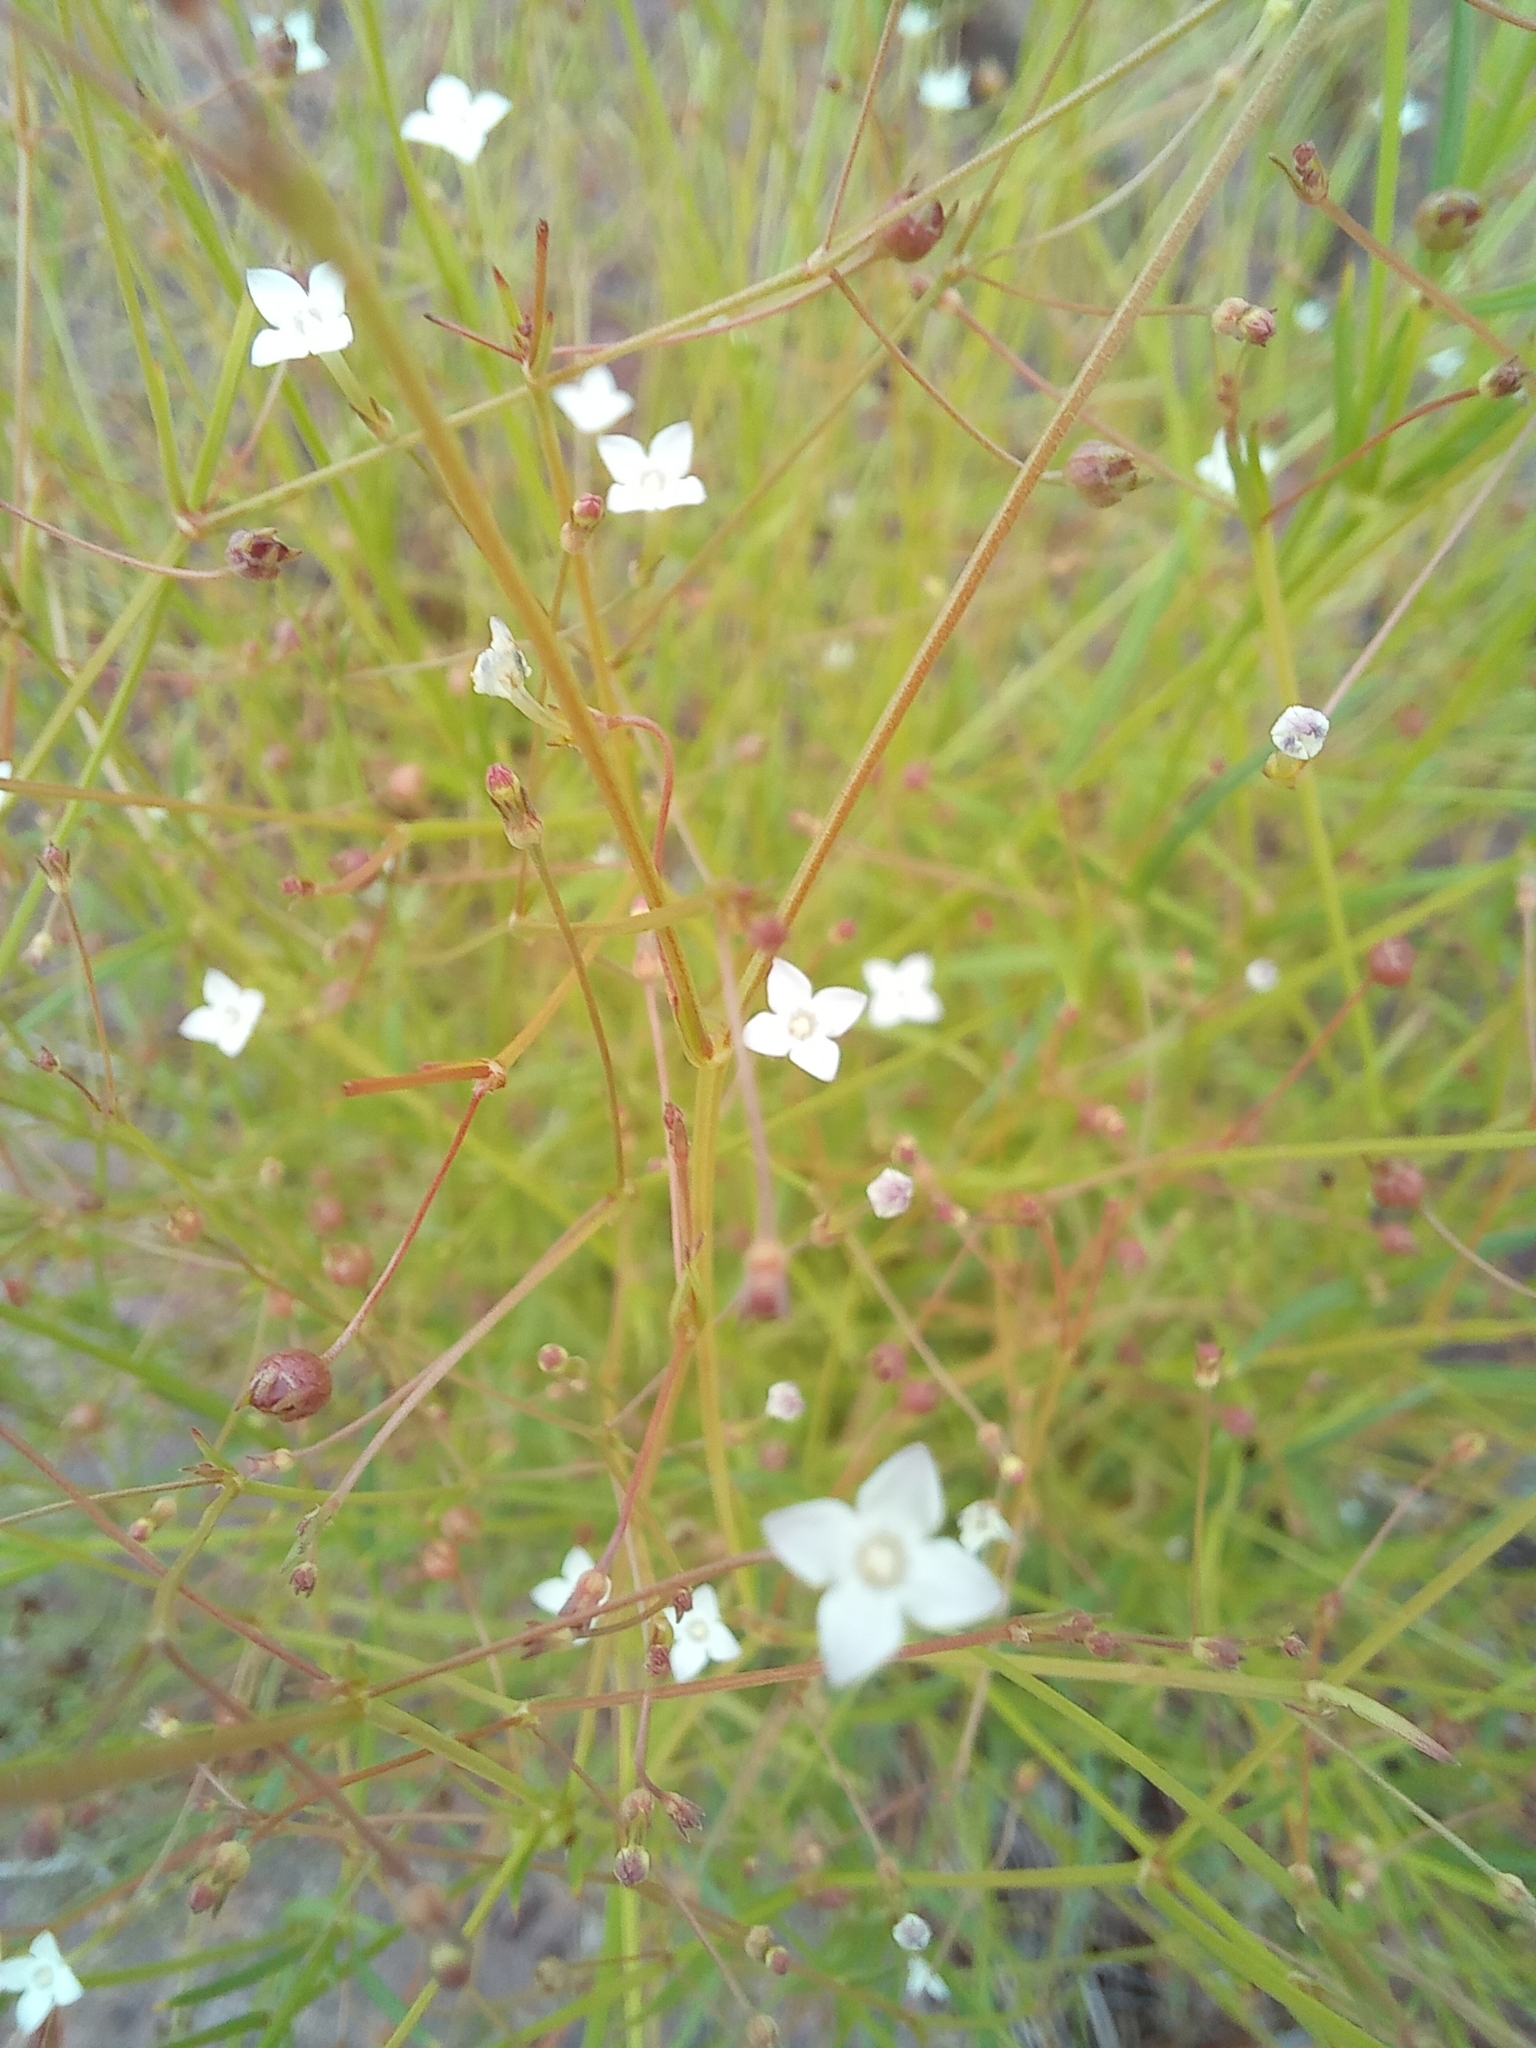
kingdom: Plantae
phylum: Tracheophyta
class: Magnoliopsida
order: Gentianales
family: Rubiaceae
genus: Oldenlandia
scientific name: Oldenlandia herbacea
